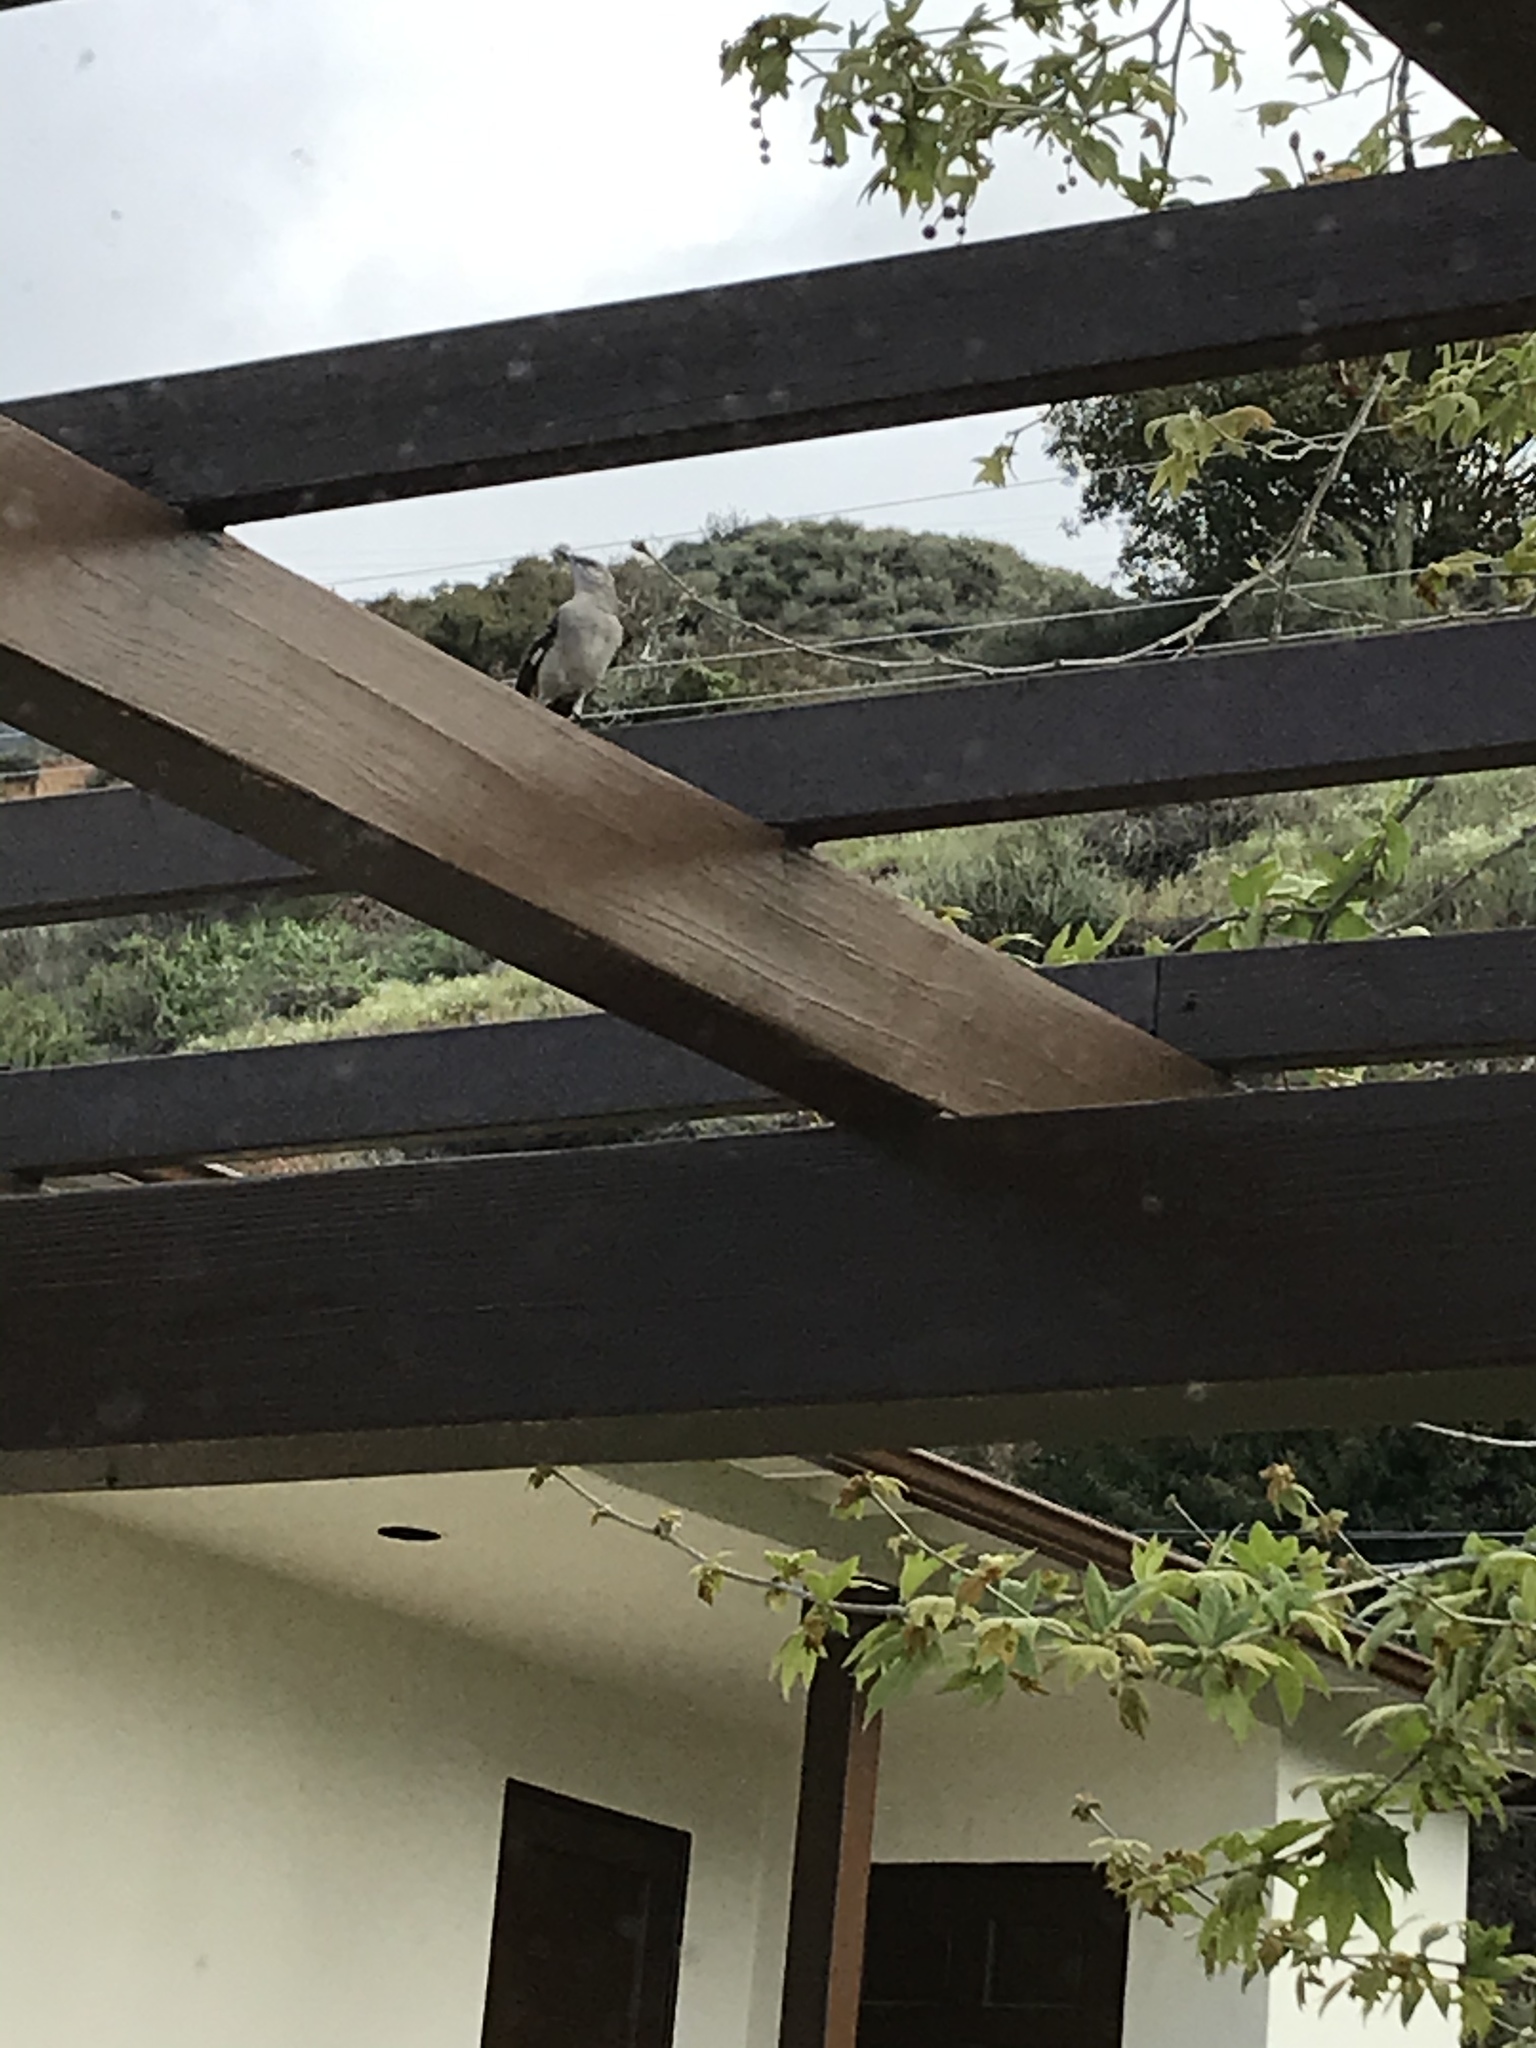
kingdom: Animalia
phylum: Chordata
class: Aves
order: Passeriformes
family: Mimidae
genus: Mimus
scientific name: Mimus polyglottos
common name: Northern mockingbird
